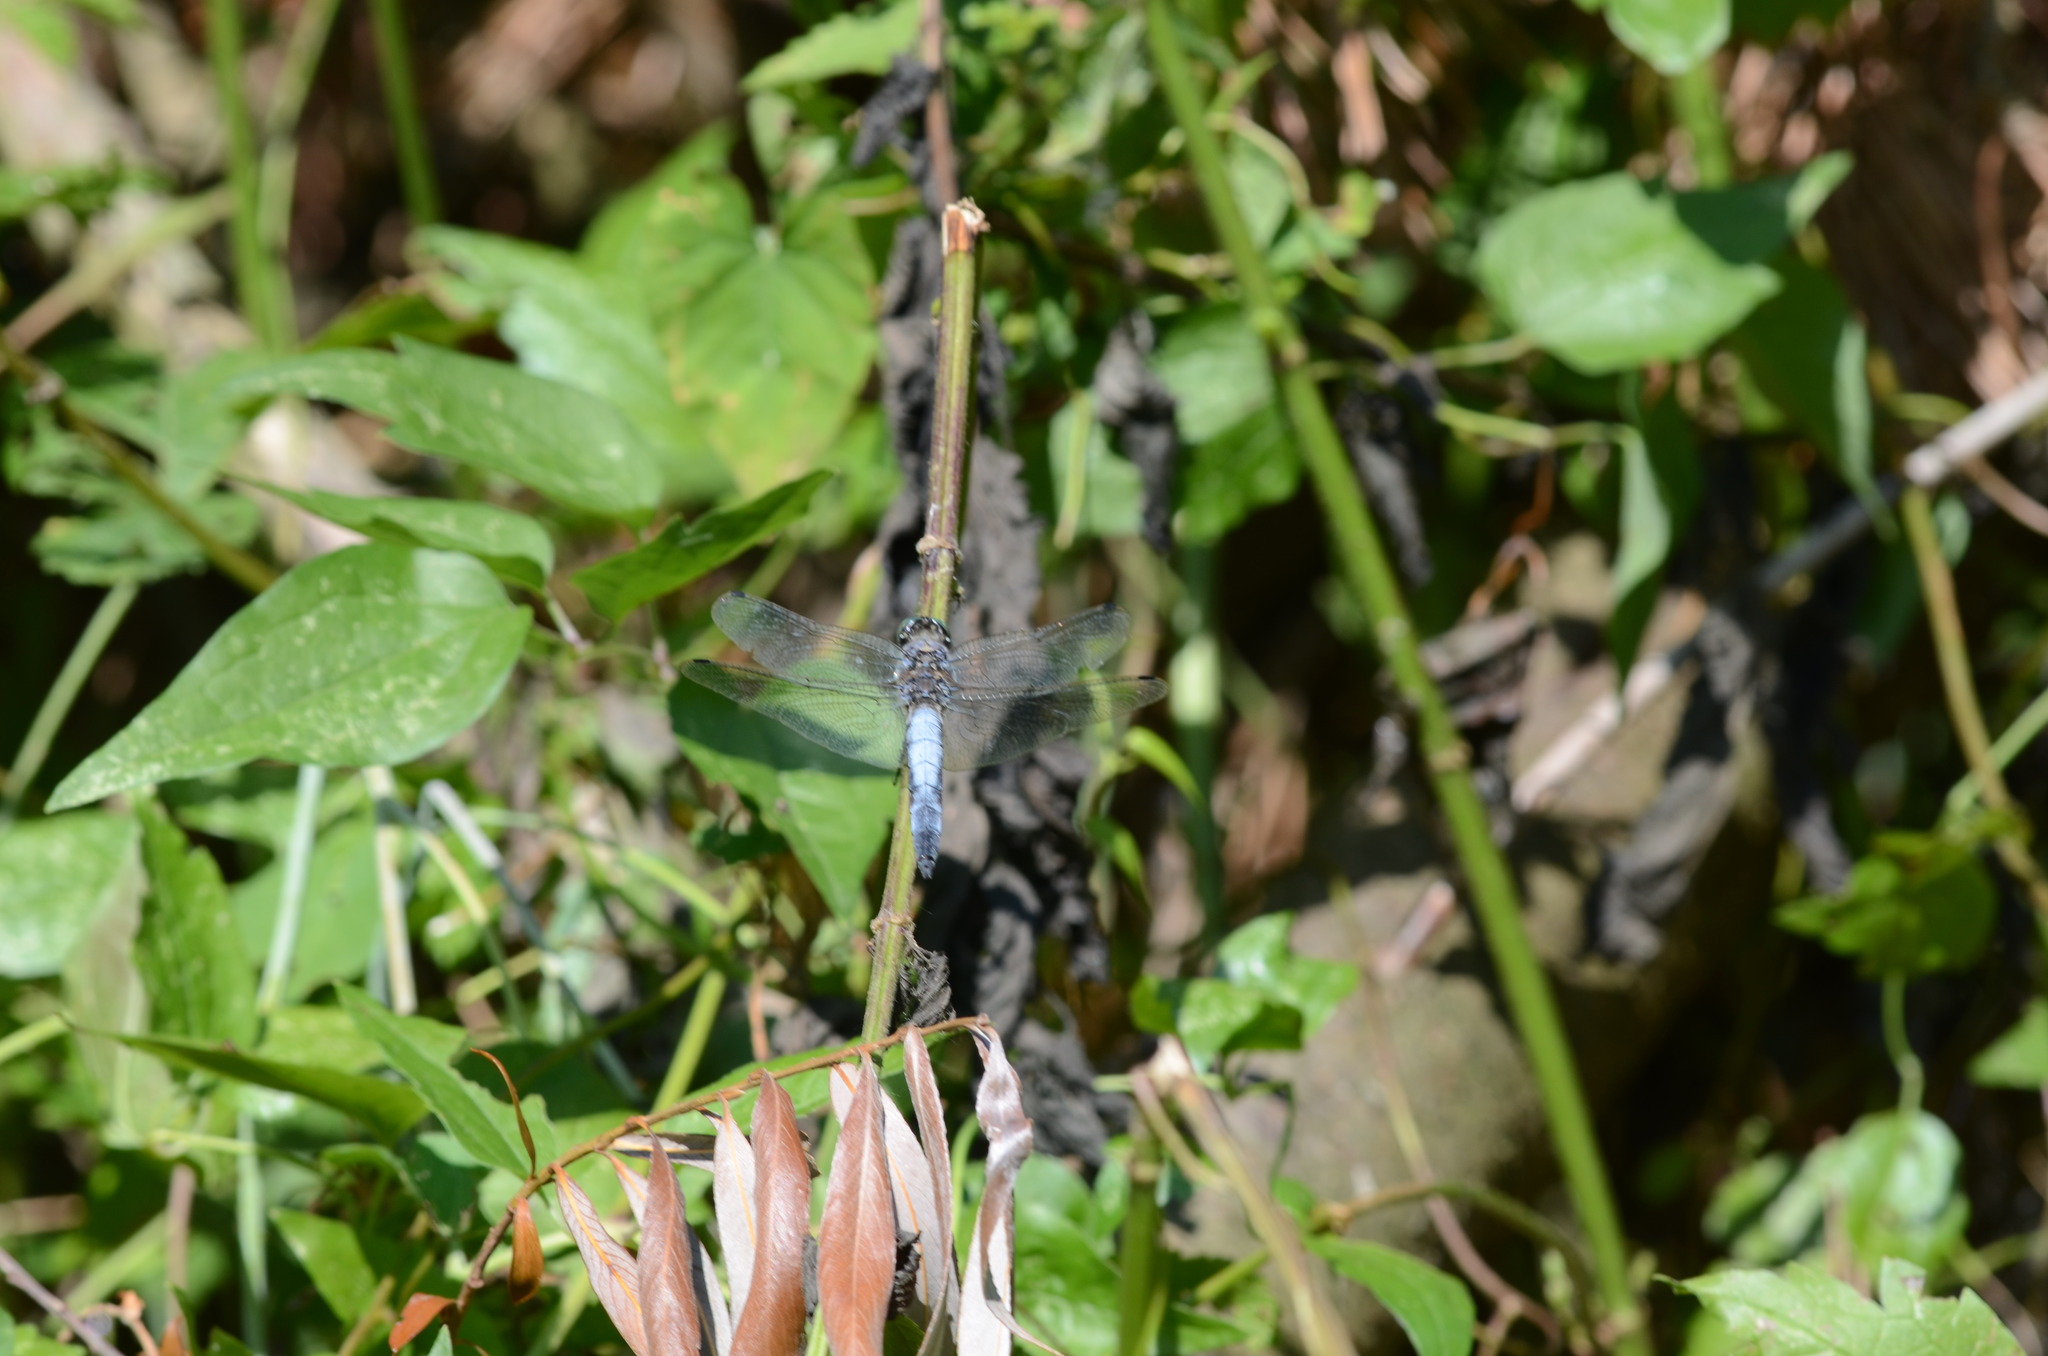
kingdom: Animalia
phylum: Arthropoda
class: Insecta
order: Odonata
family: Libellulidae
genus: Orthetrum
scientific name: Orthetrum cancellatum
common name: Black-tailed skimmer
